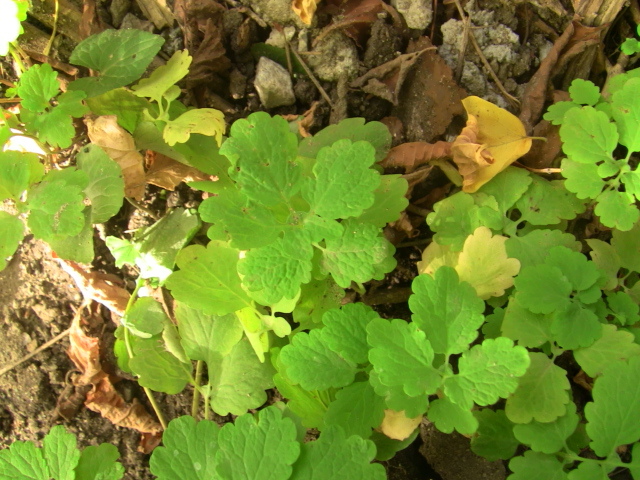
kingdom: Plantae
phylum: Tracheophyta
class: Magnoliopsida
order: Ranunculales
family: Papaveraceae
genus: Chelidonium
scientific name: Chelidonium majus
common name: Greater celandine
